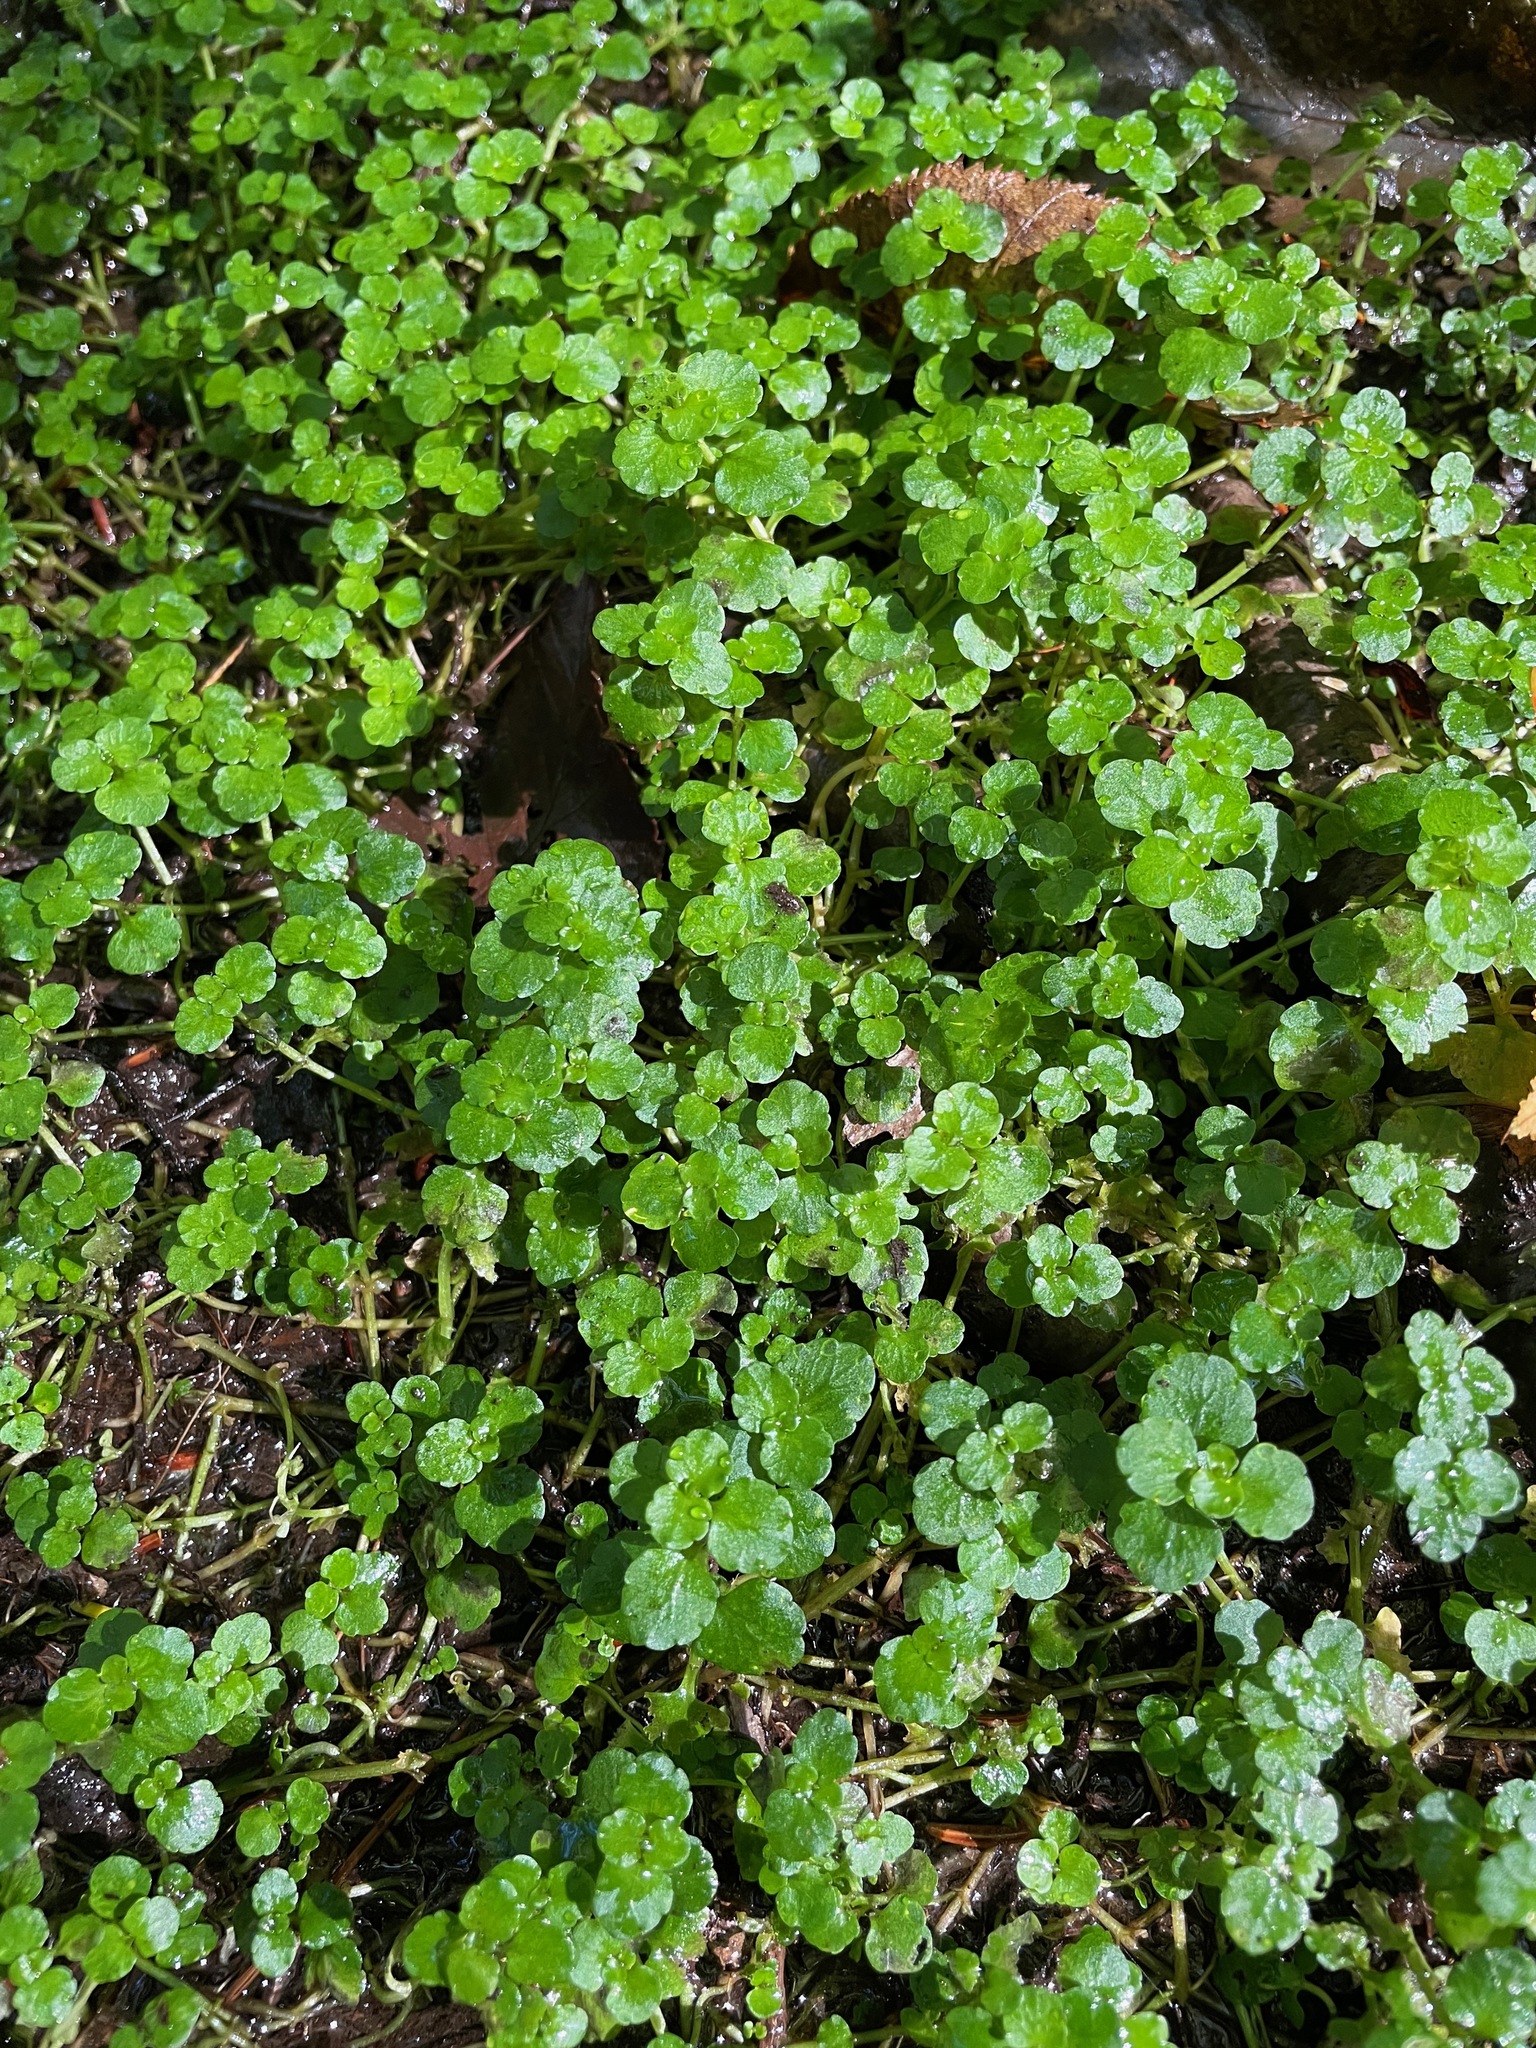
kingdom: Plantae
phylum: Tracheophyta
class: Magnoliopsida
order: Saxifragales
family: Saxifragaceae
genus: Chrysosplenium
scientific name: Chrysosplenium americanum
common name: American golden-saxifrage
